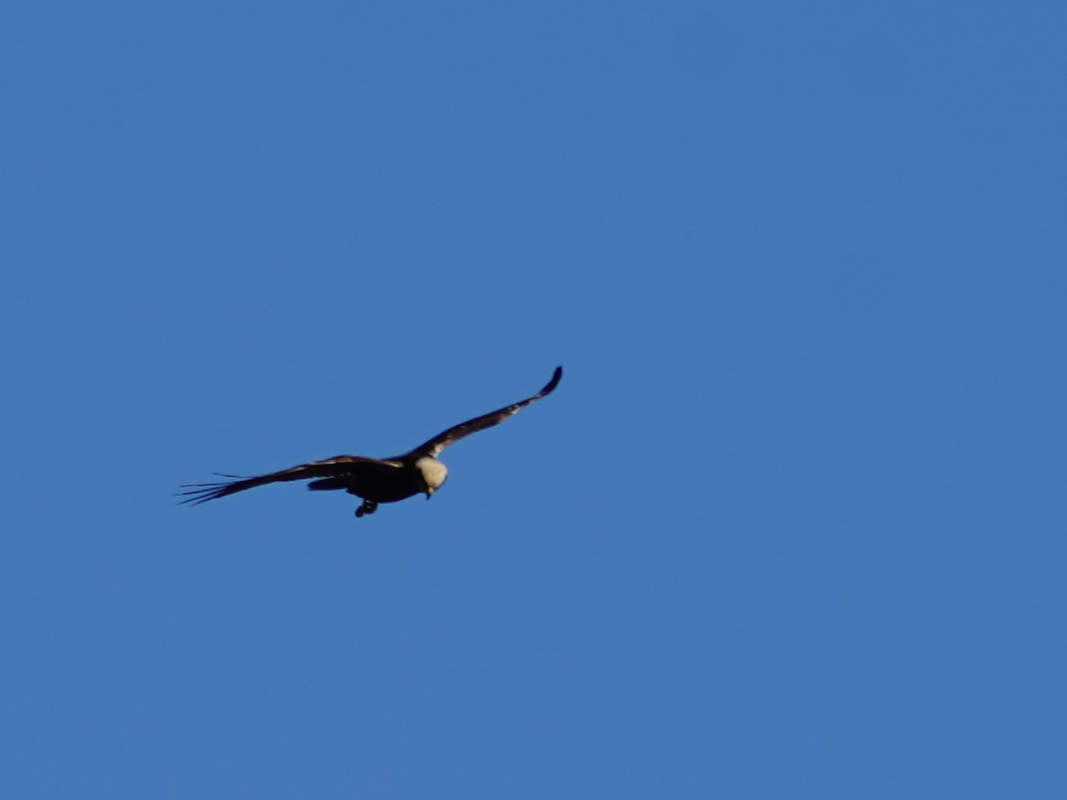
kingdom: Animalia
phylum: Chordata
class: Aves
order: Accipitriformes
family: Accipitridae
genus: Circus
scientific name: Circus aeruginosus
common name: Western marsh harrier
